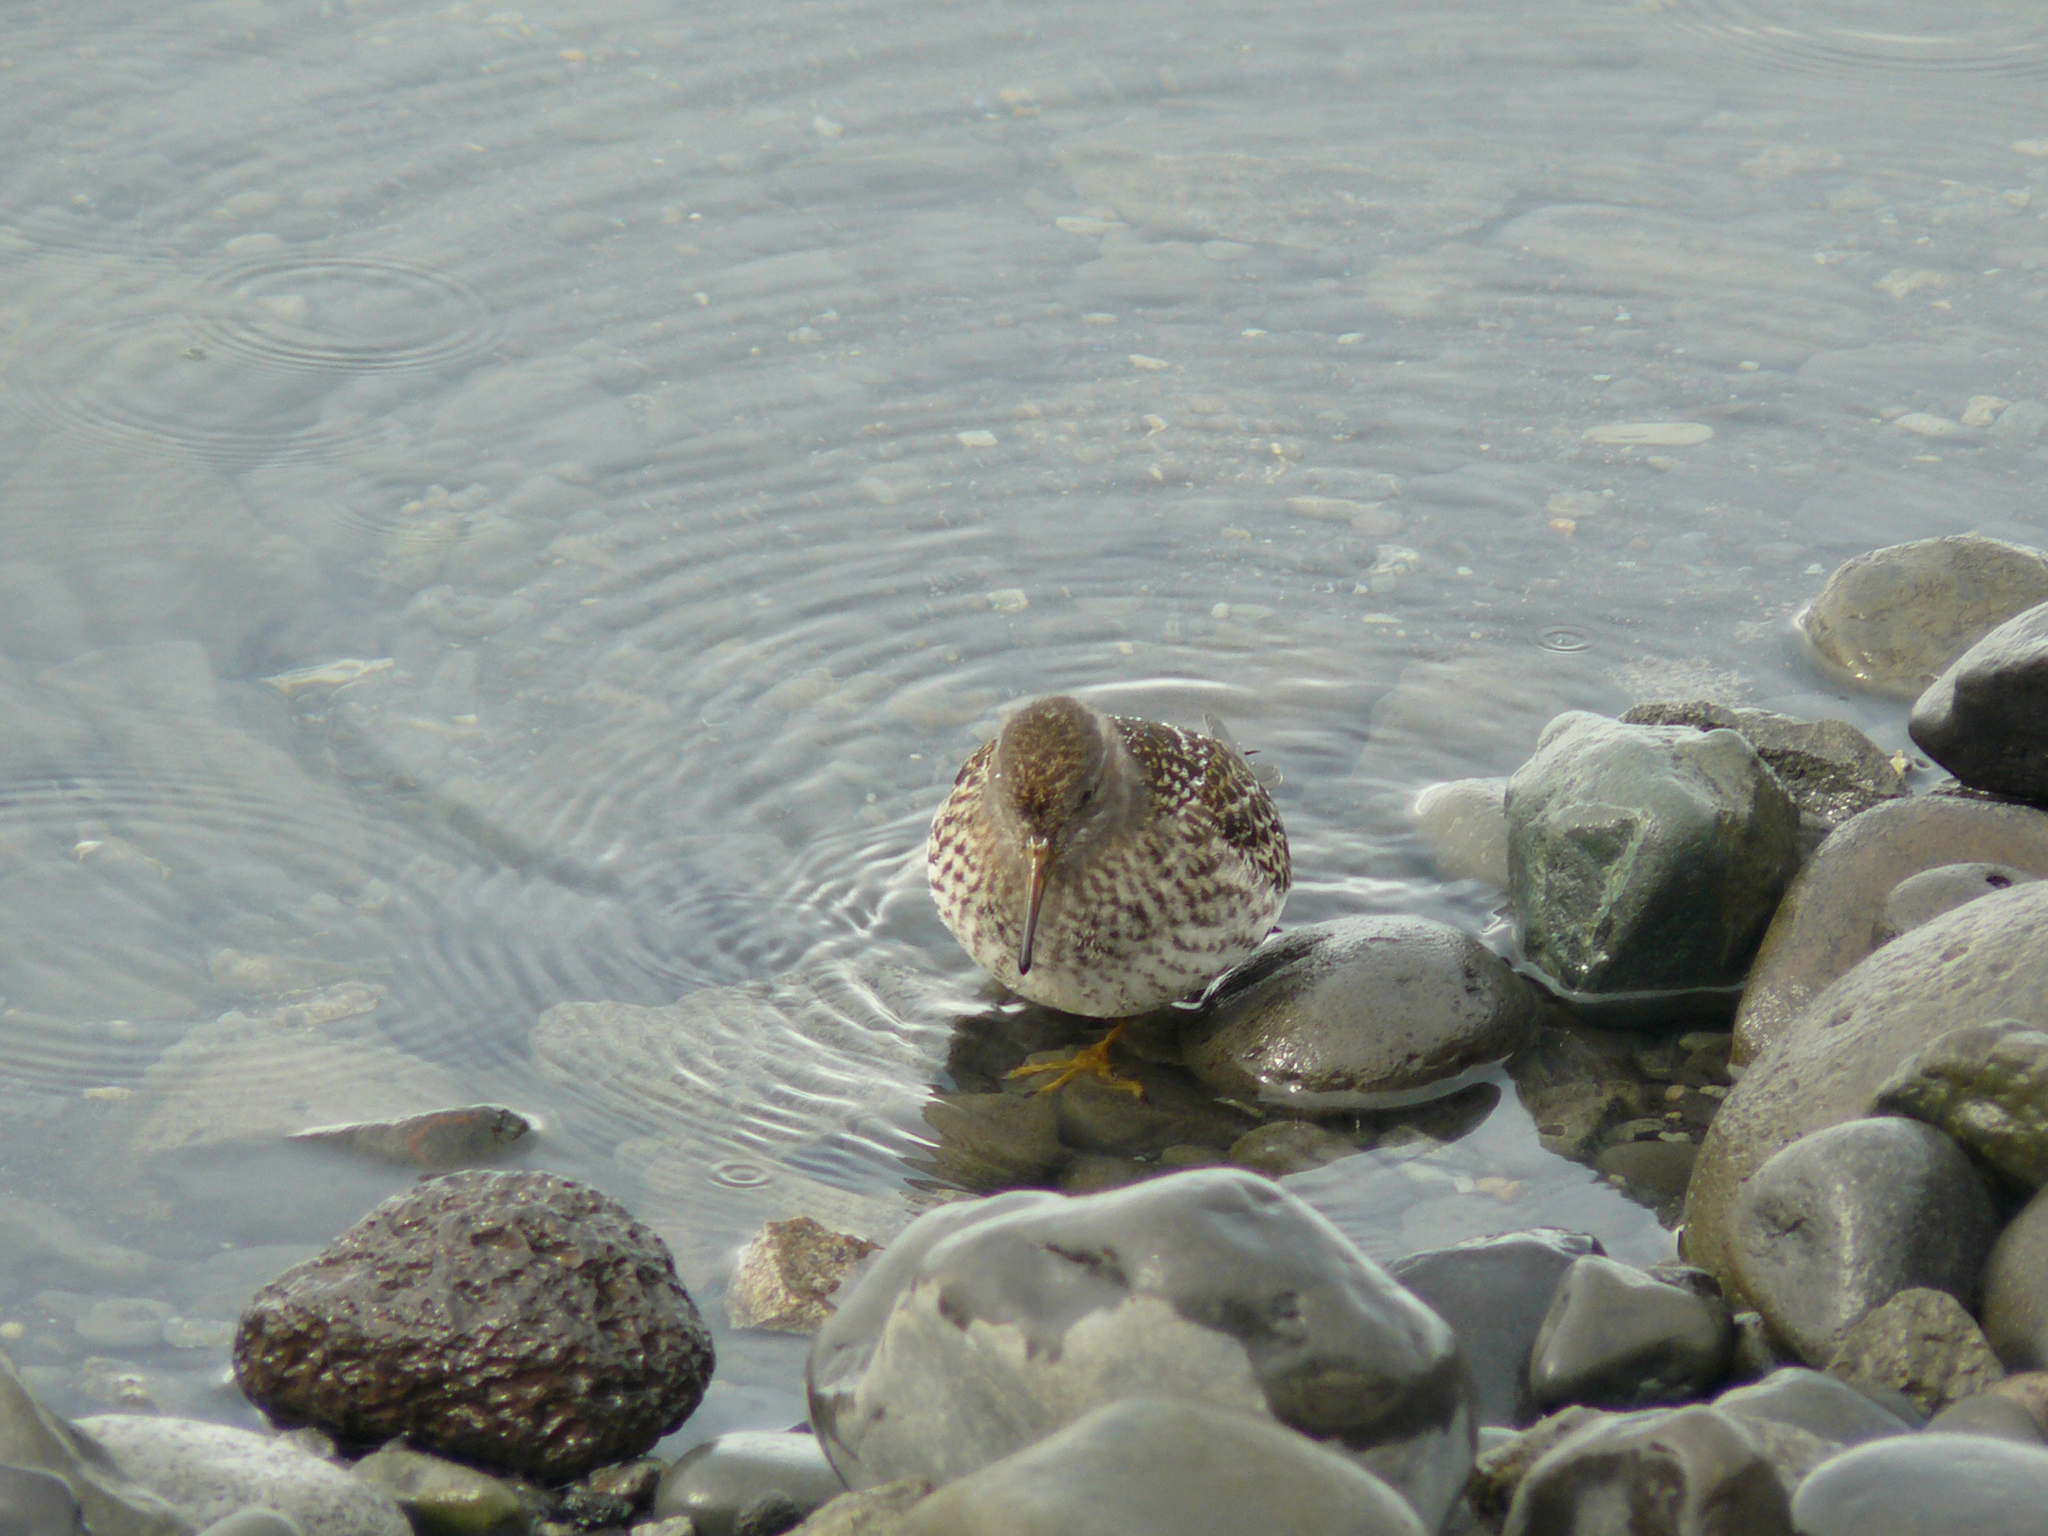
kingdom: Animalia
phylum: Chordata
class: Aves
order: Charadriiformes
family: Scolopacidae
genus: Calidris
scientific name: Calidris maritima
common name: Purple sandpiper
